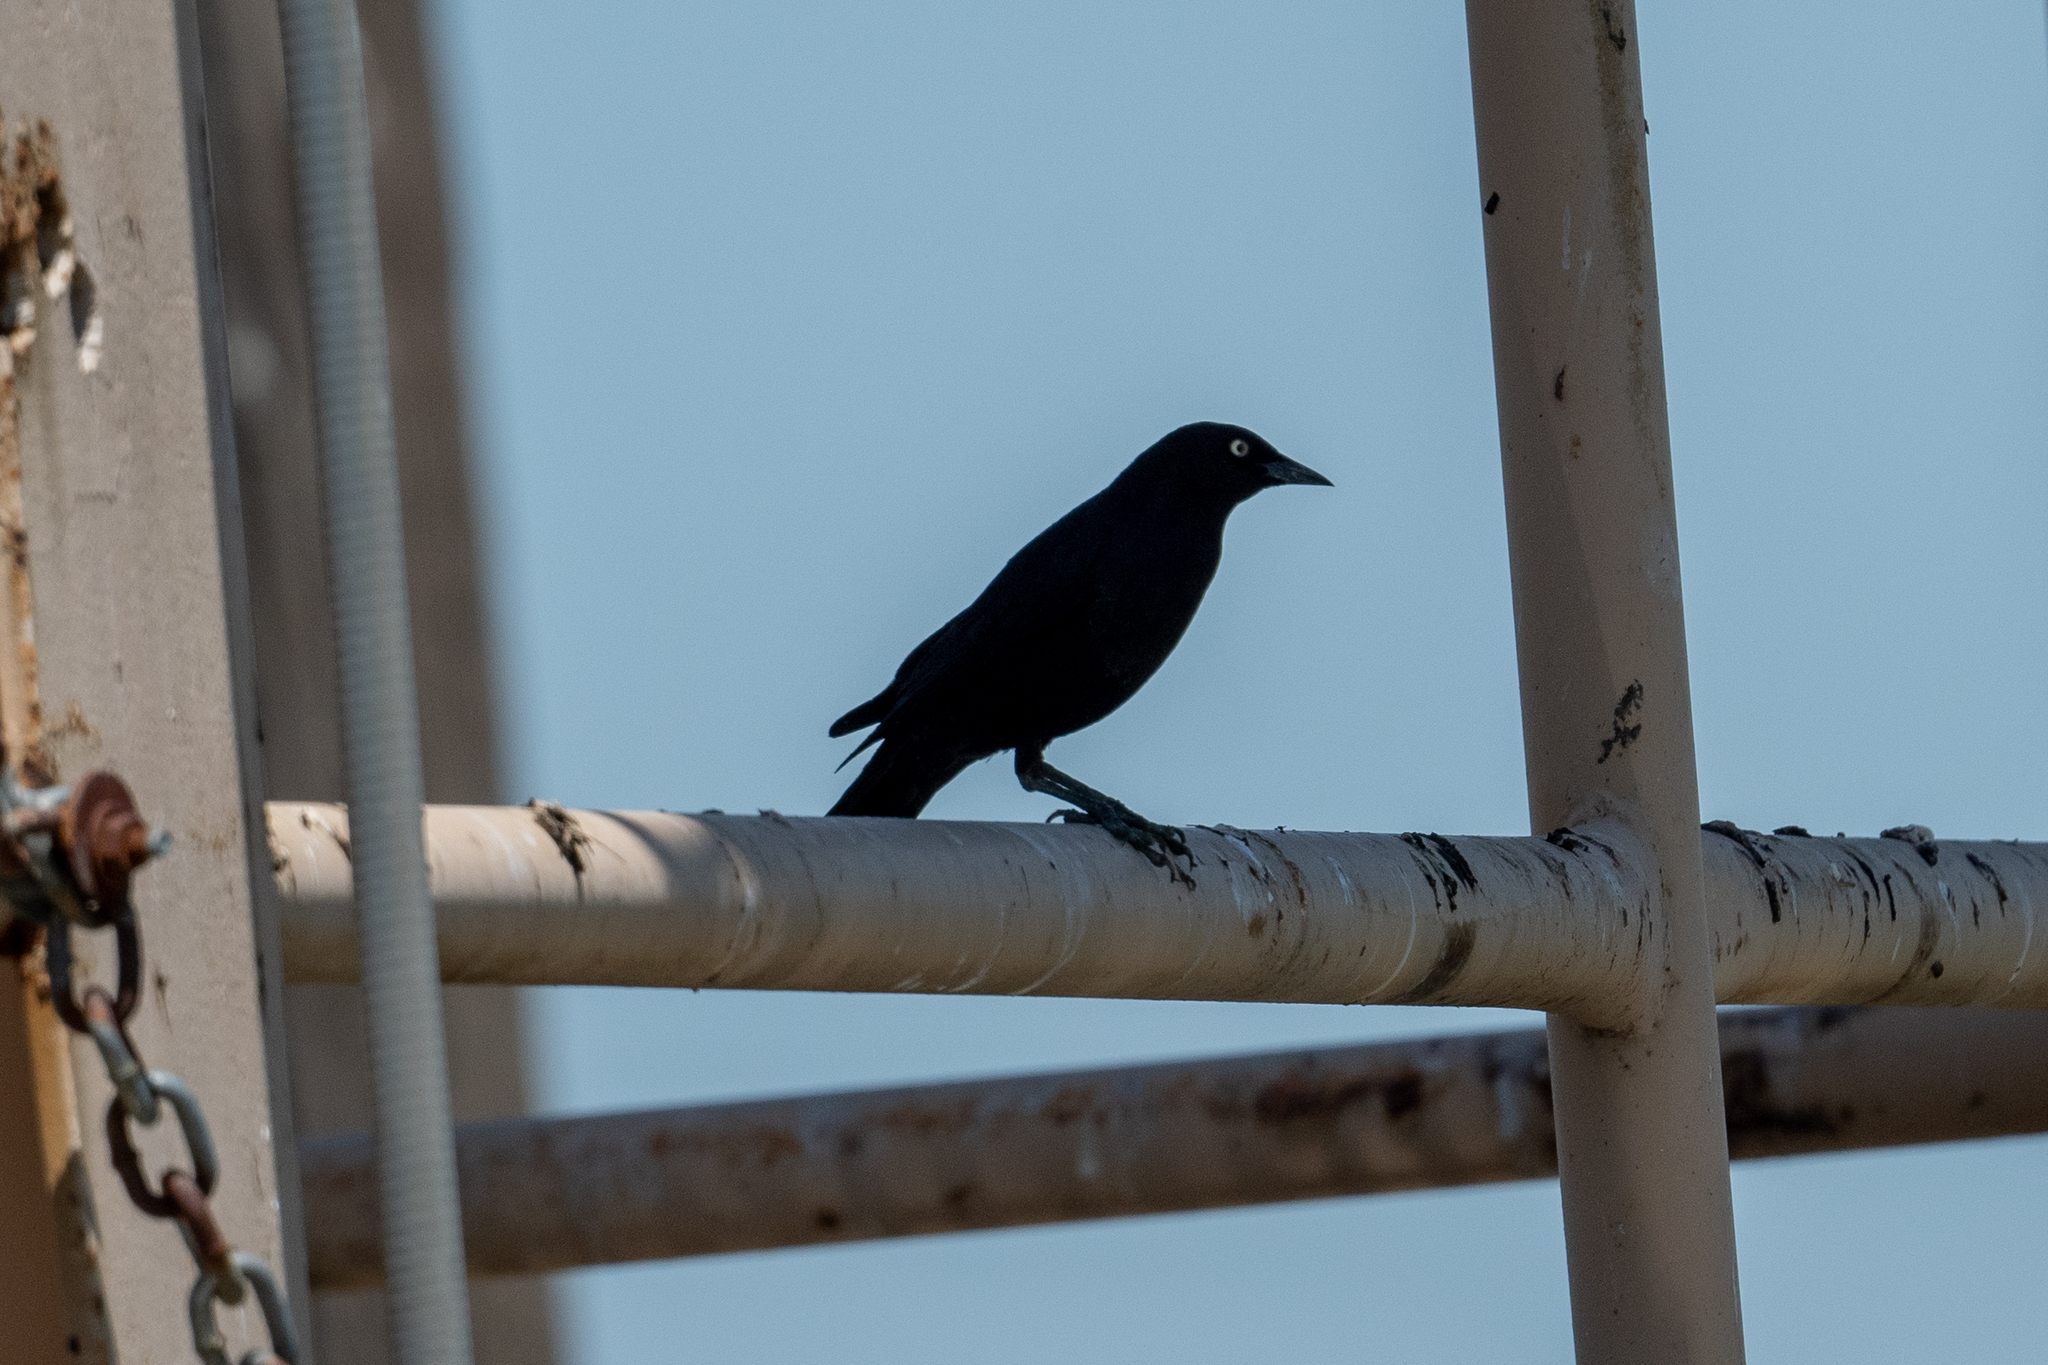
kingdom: Animalia
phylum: Chordata
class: Aves
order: Passeriformes
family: Icteridae
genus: Euphagus
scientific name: Euphagus cyanocephalus
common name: Brewer's blackbird
